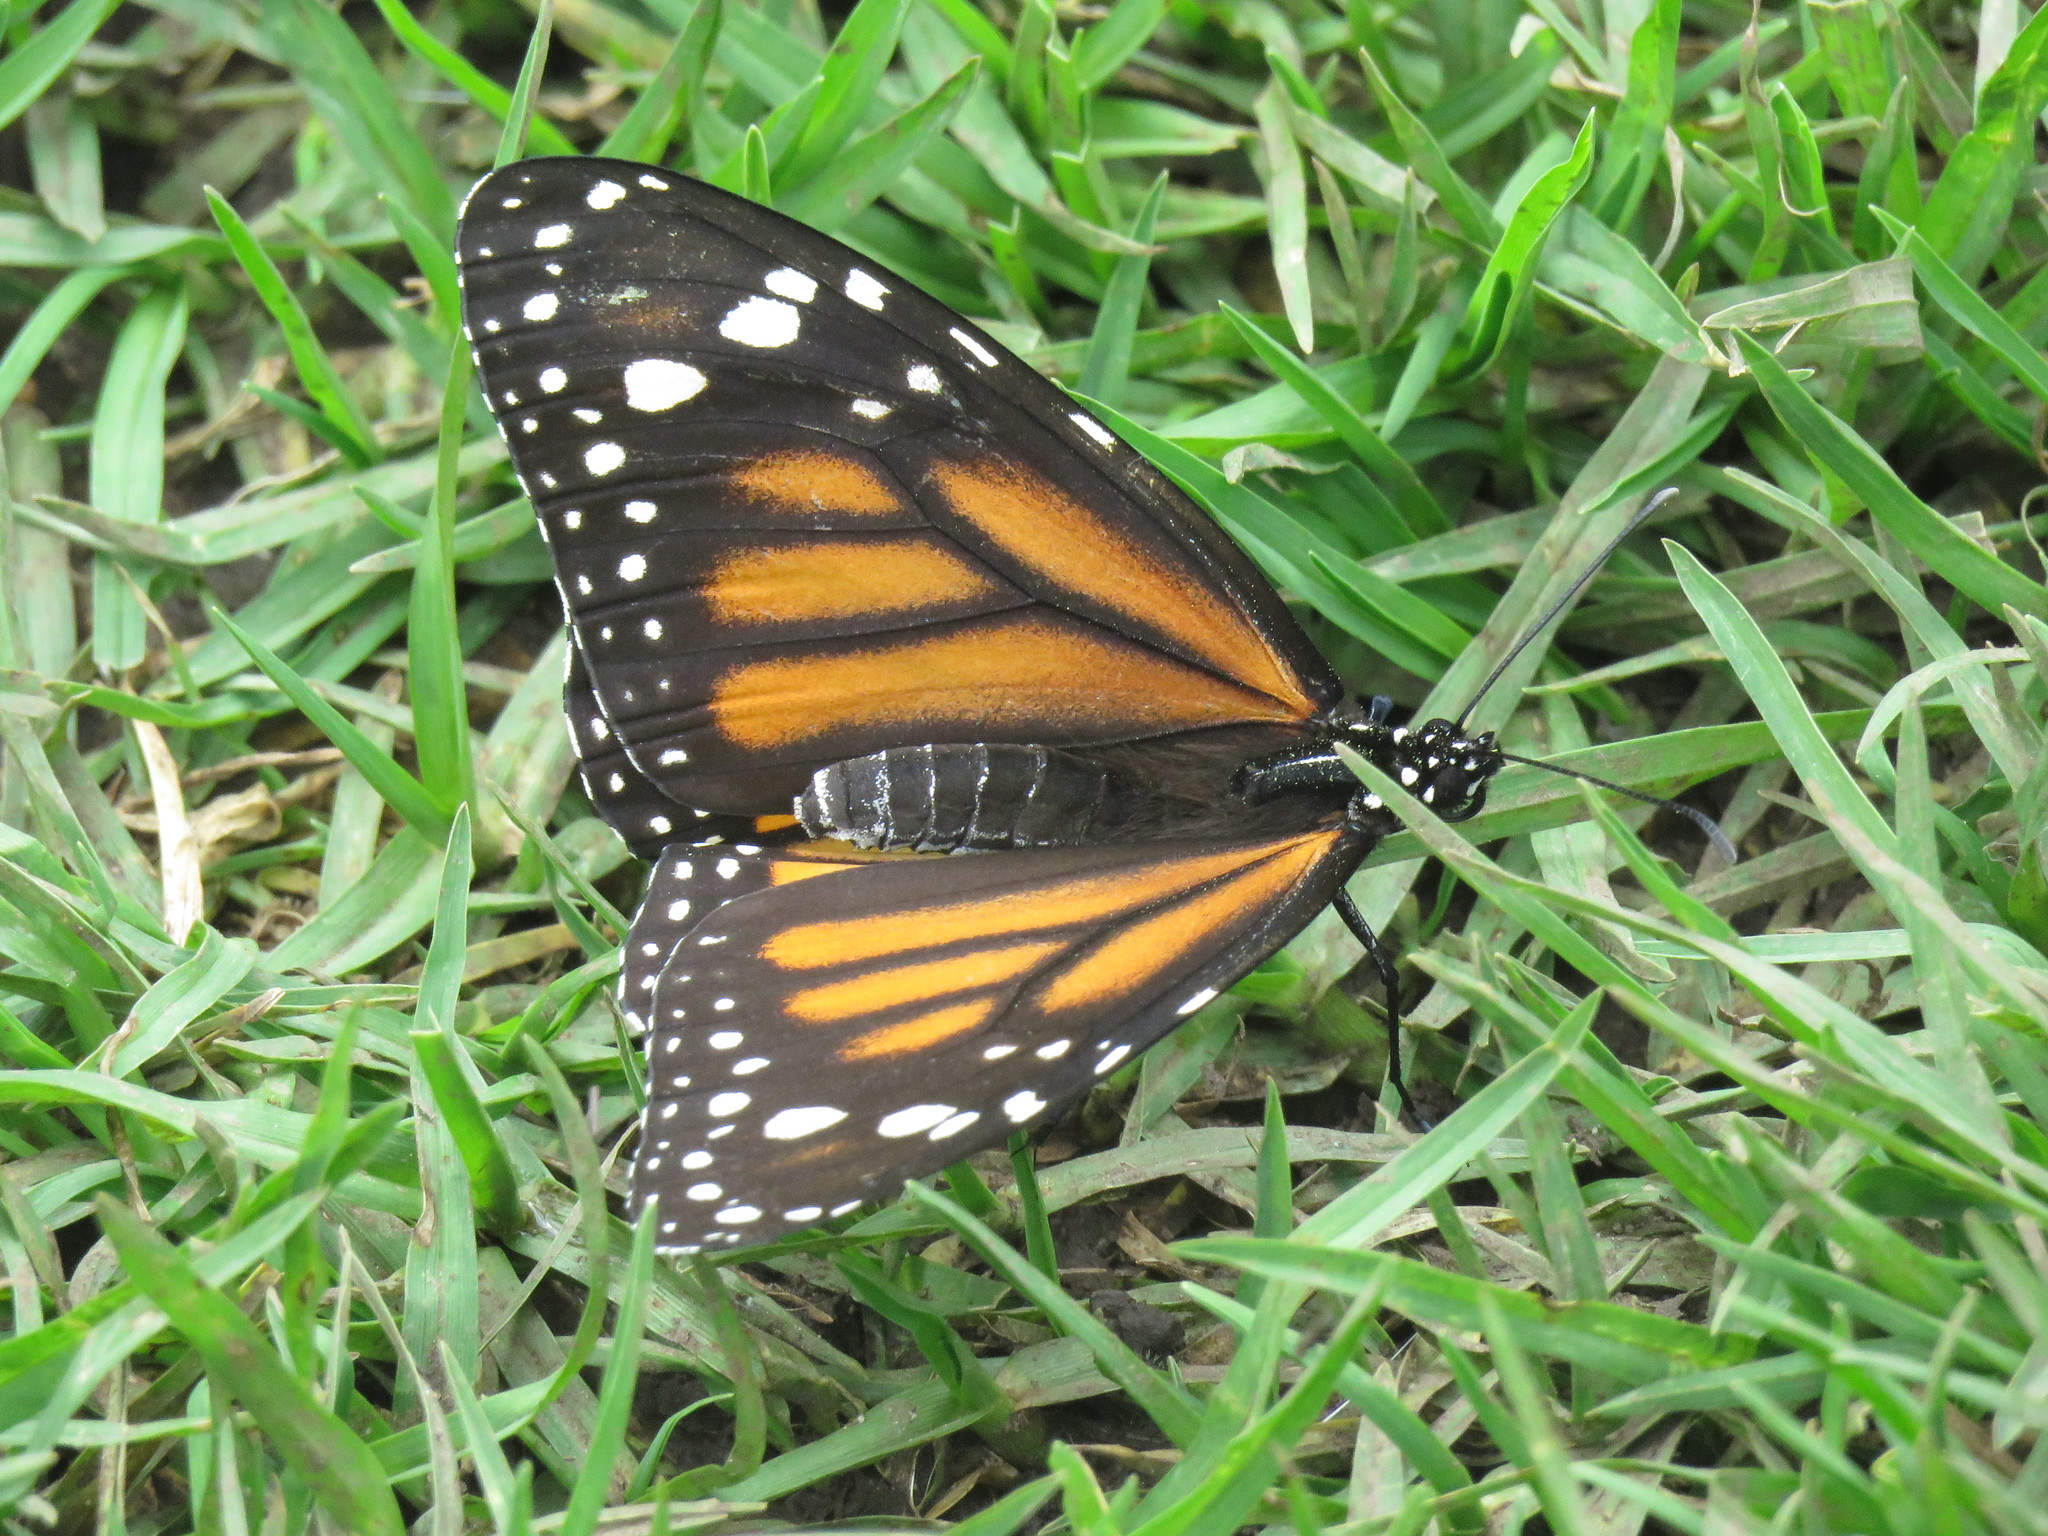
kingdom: Animalia
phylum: Arthropoda
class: Insecta
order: Lepidoptera
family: Nymphalidae
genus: Danaus
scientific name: Danaus plexippus
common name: Monarch
